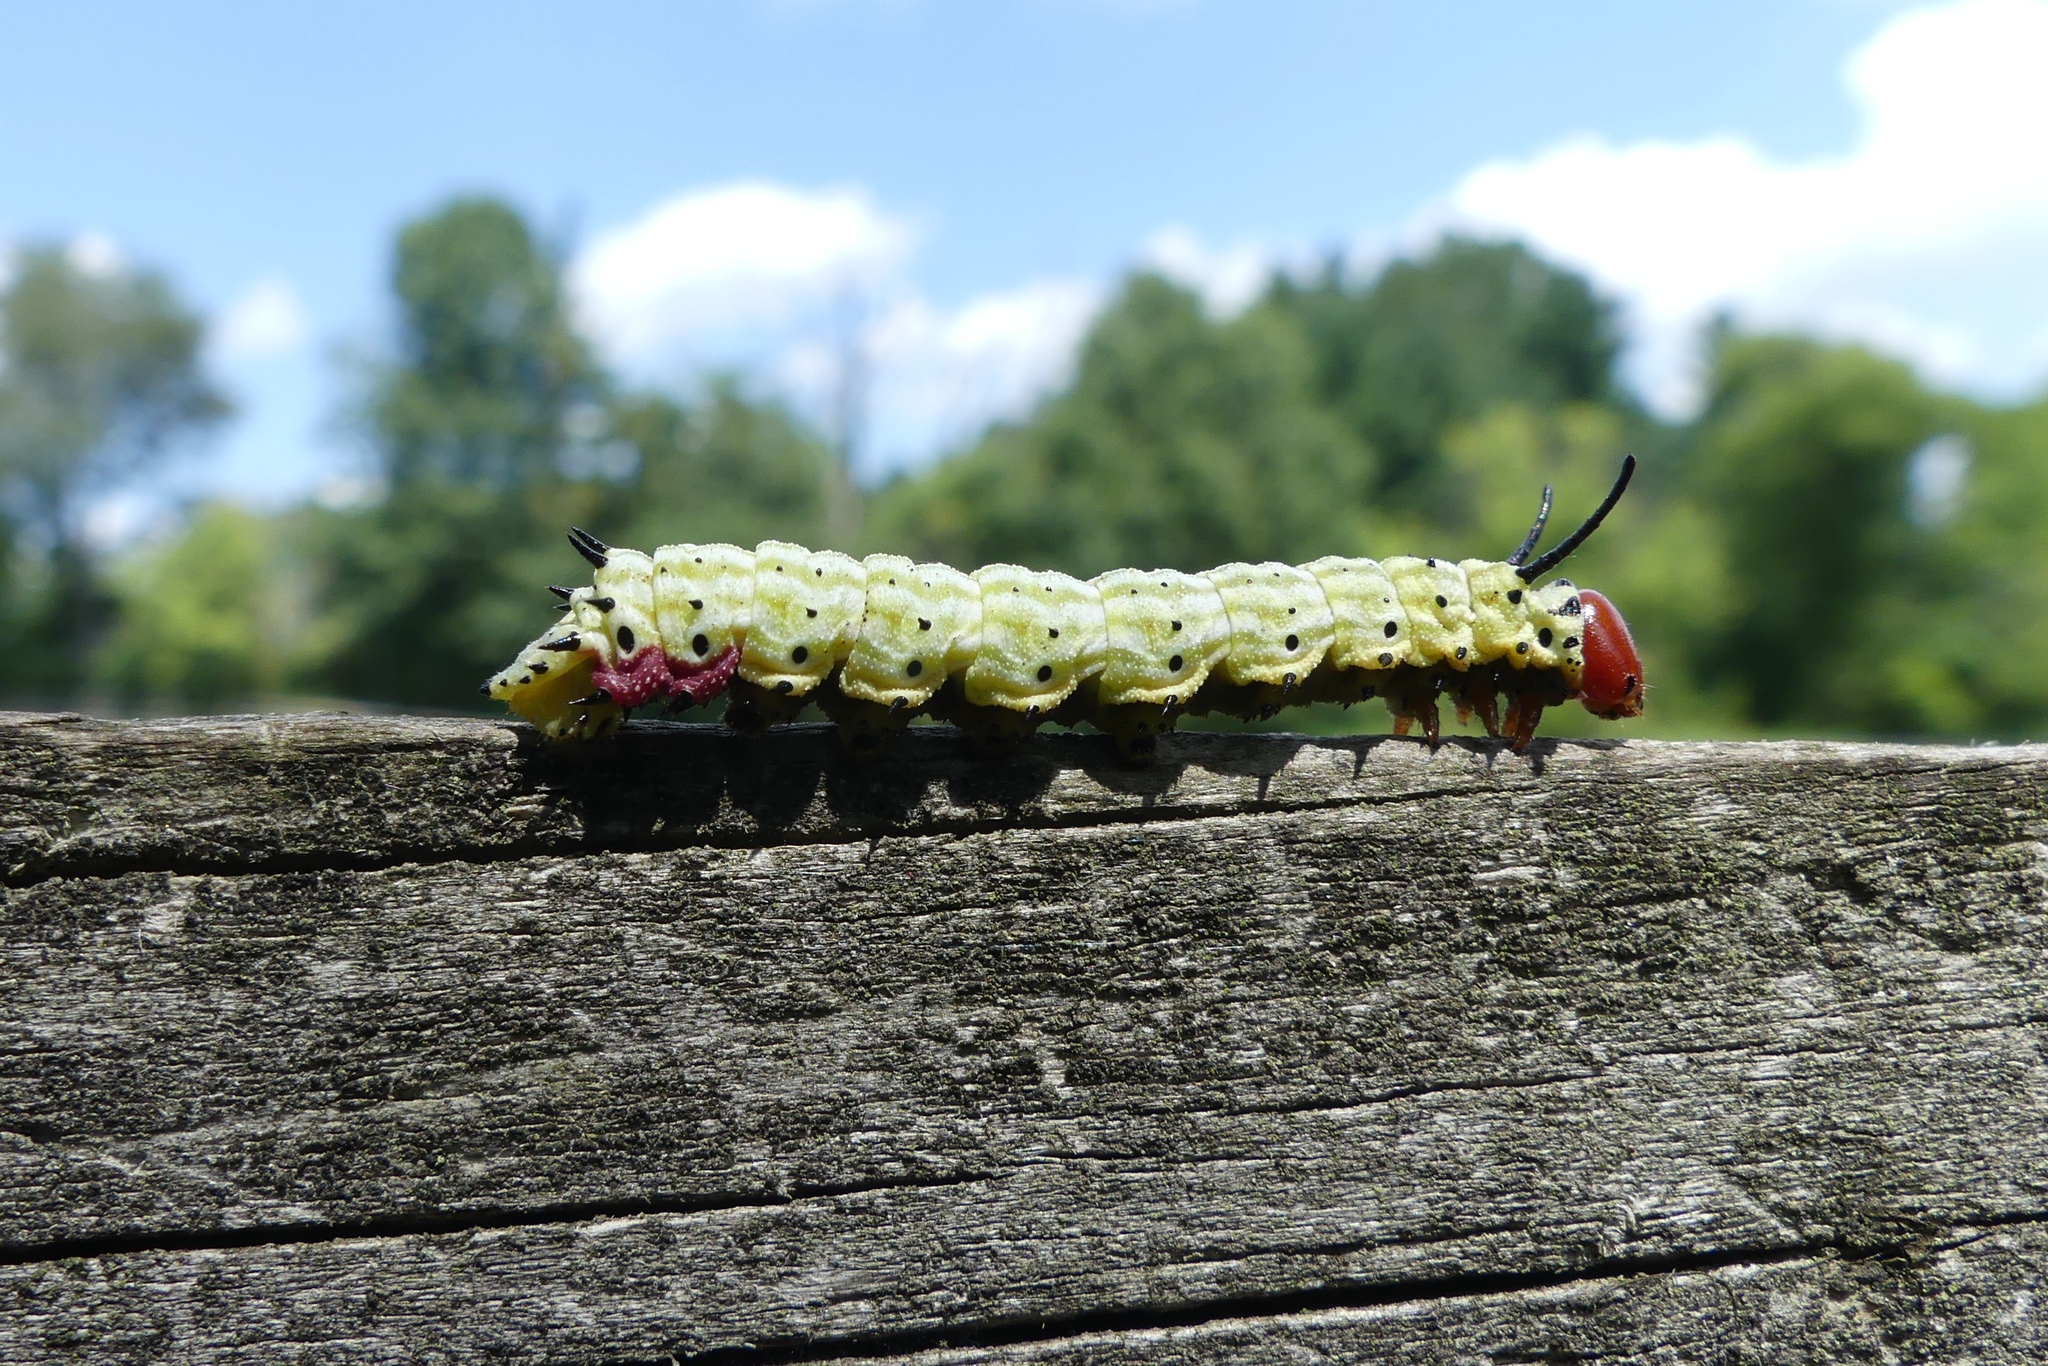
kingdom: Animalia
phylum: Arthropoda
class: Insecta
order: Lepidoptera
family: Saturniidae
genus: Dryocampa
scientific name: Dryocampa rubicunda
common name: Rosy maple moth
